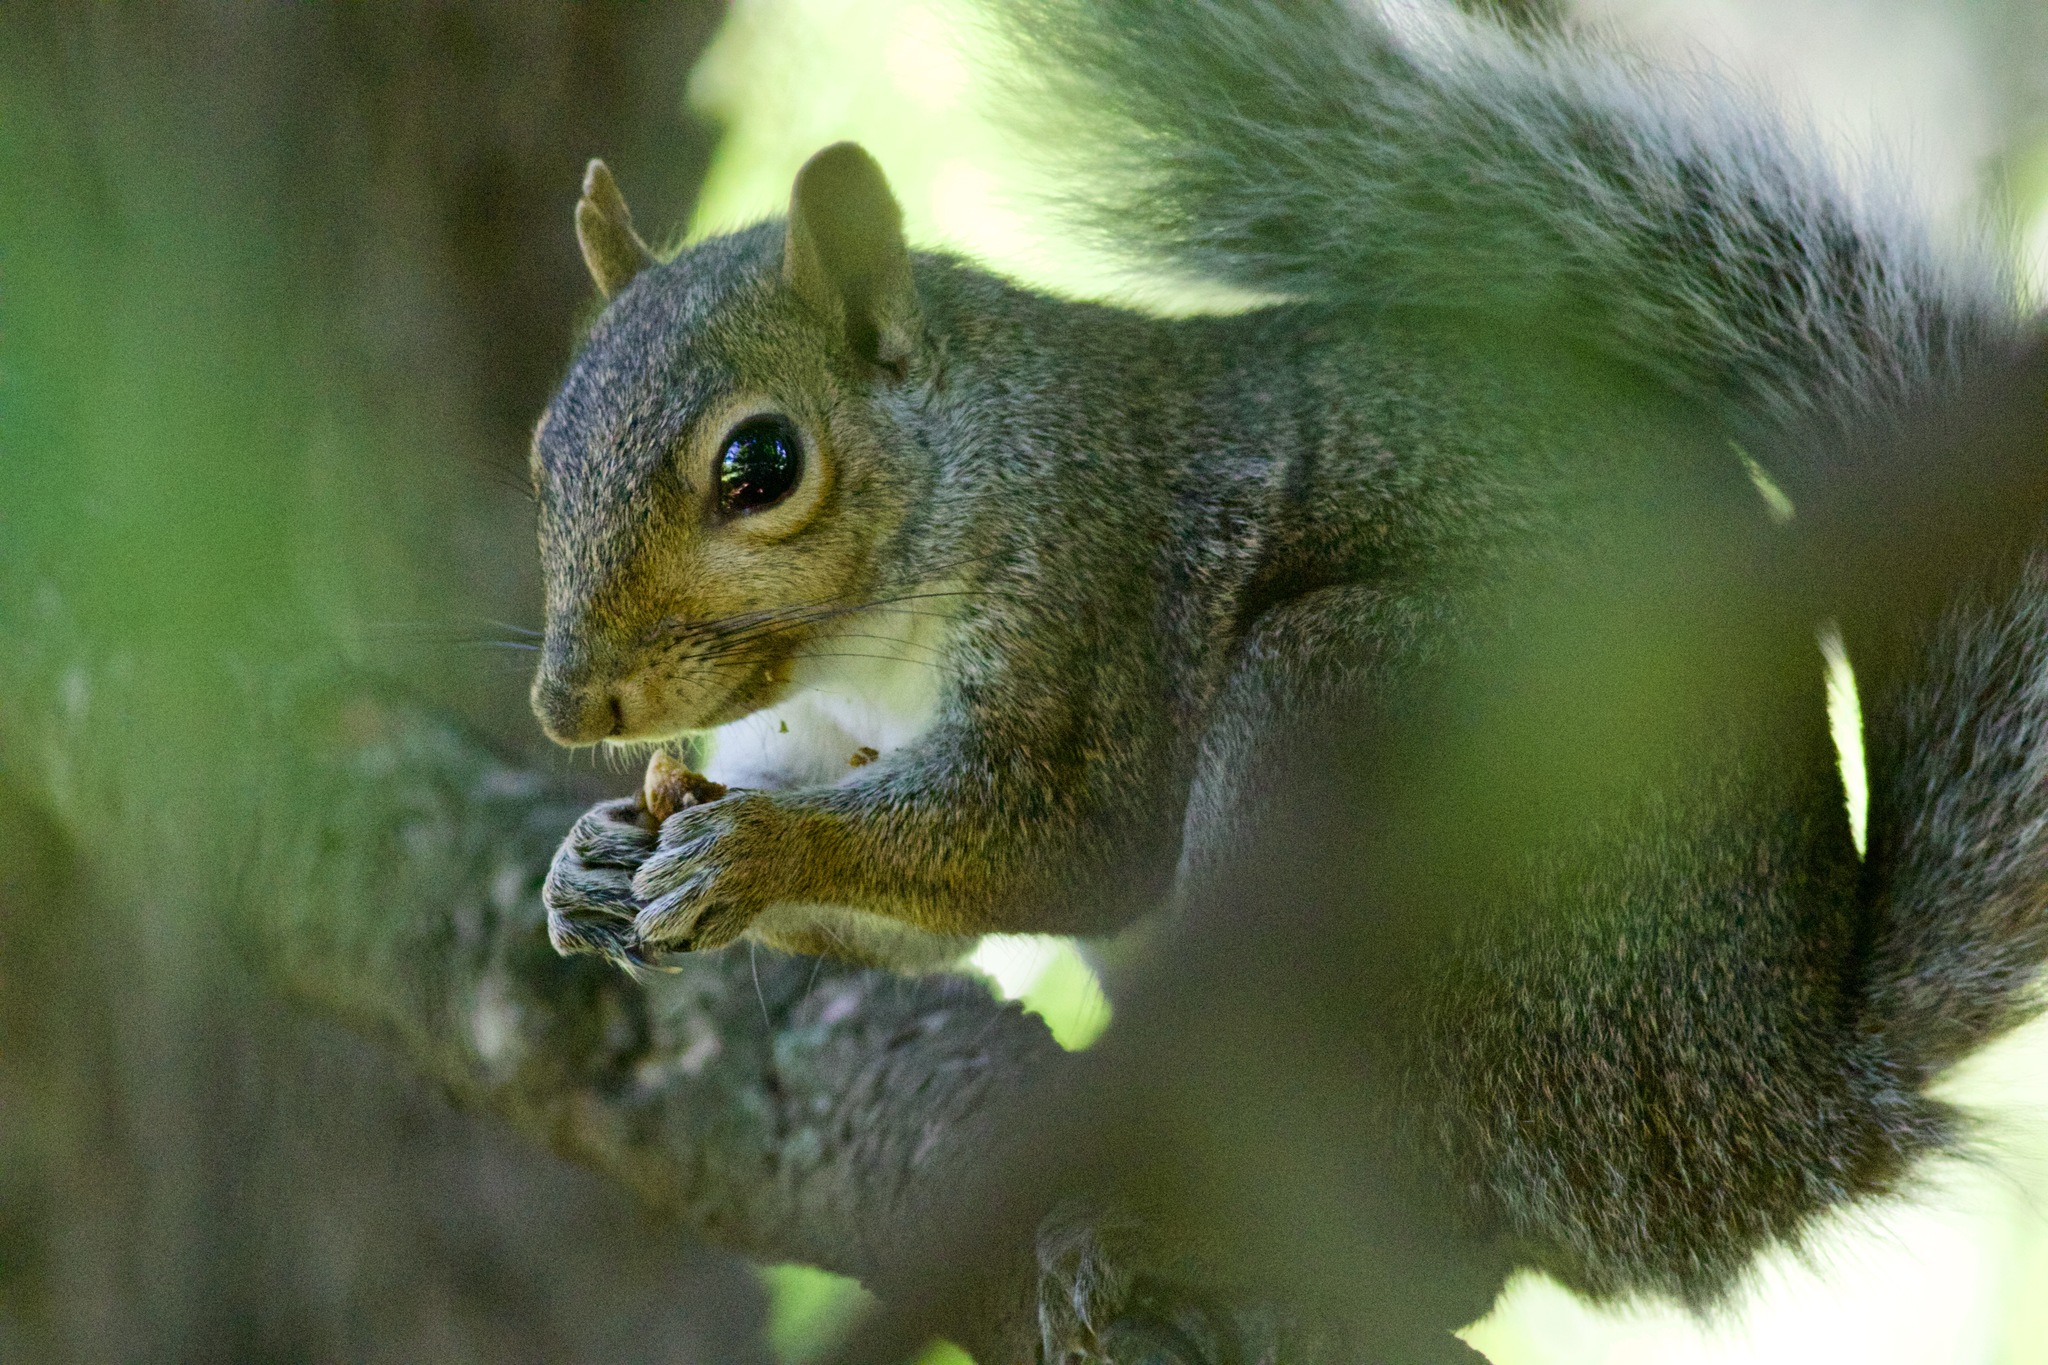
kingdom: Animalia
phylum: Chordata
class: Mammalia
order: Rodentia
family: Sciuridae
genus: Sciurus
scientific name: Sciurus carolinensis
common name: Eastern gray squirrel
